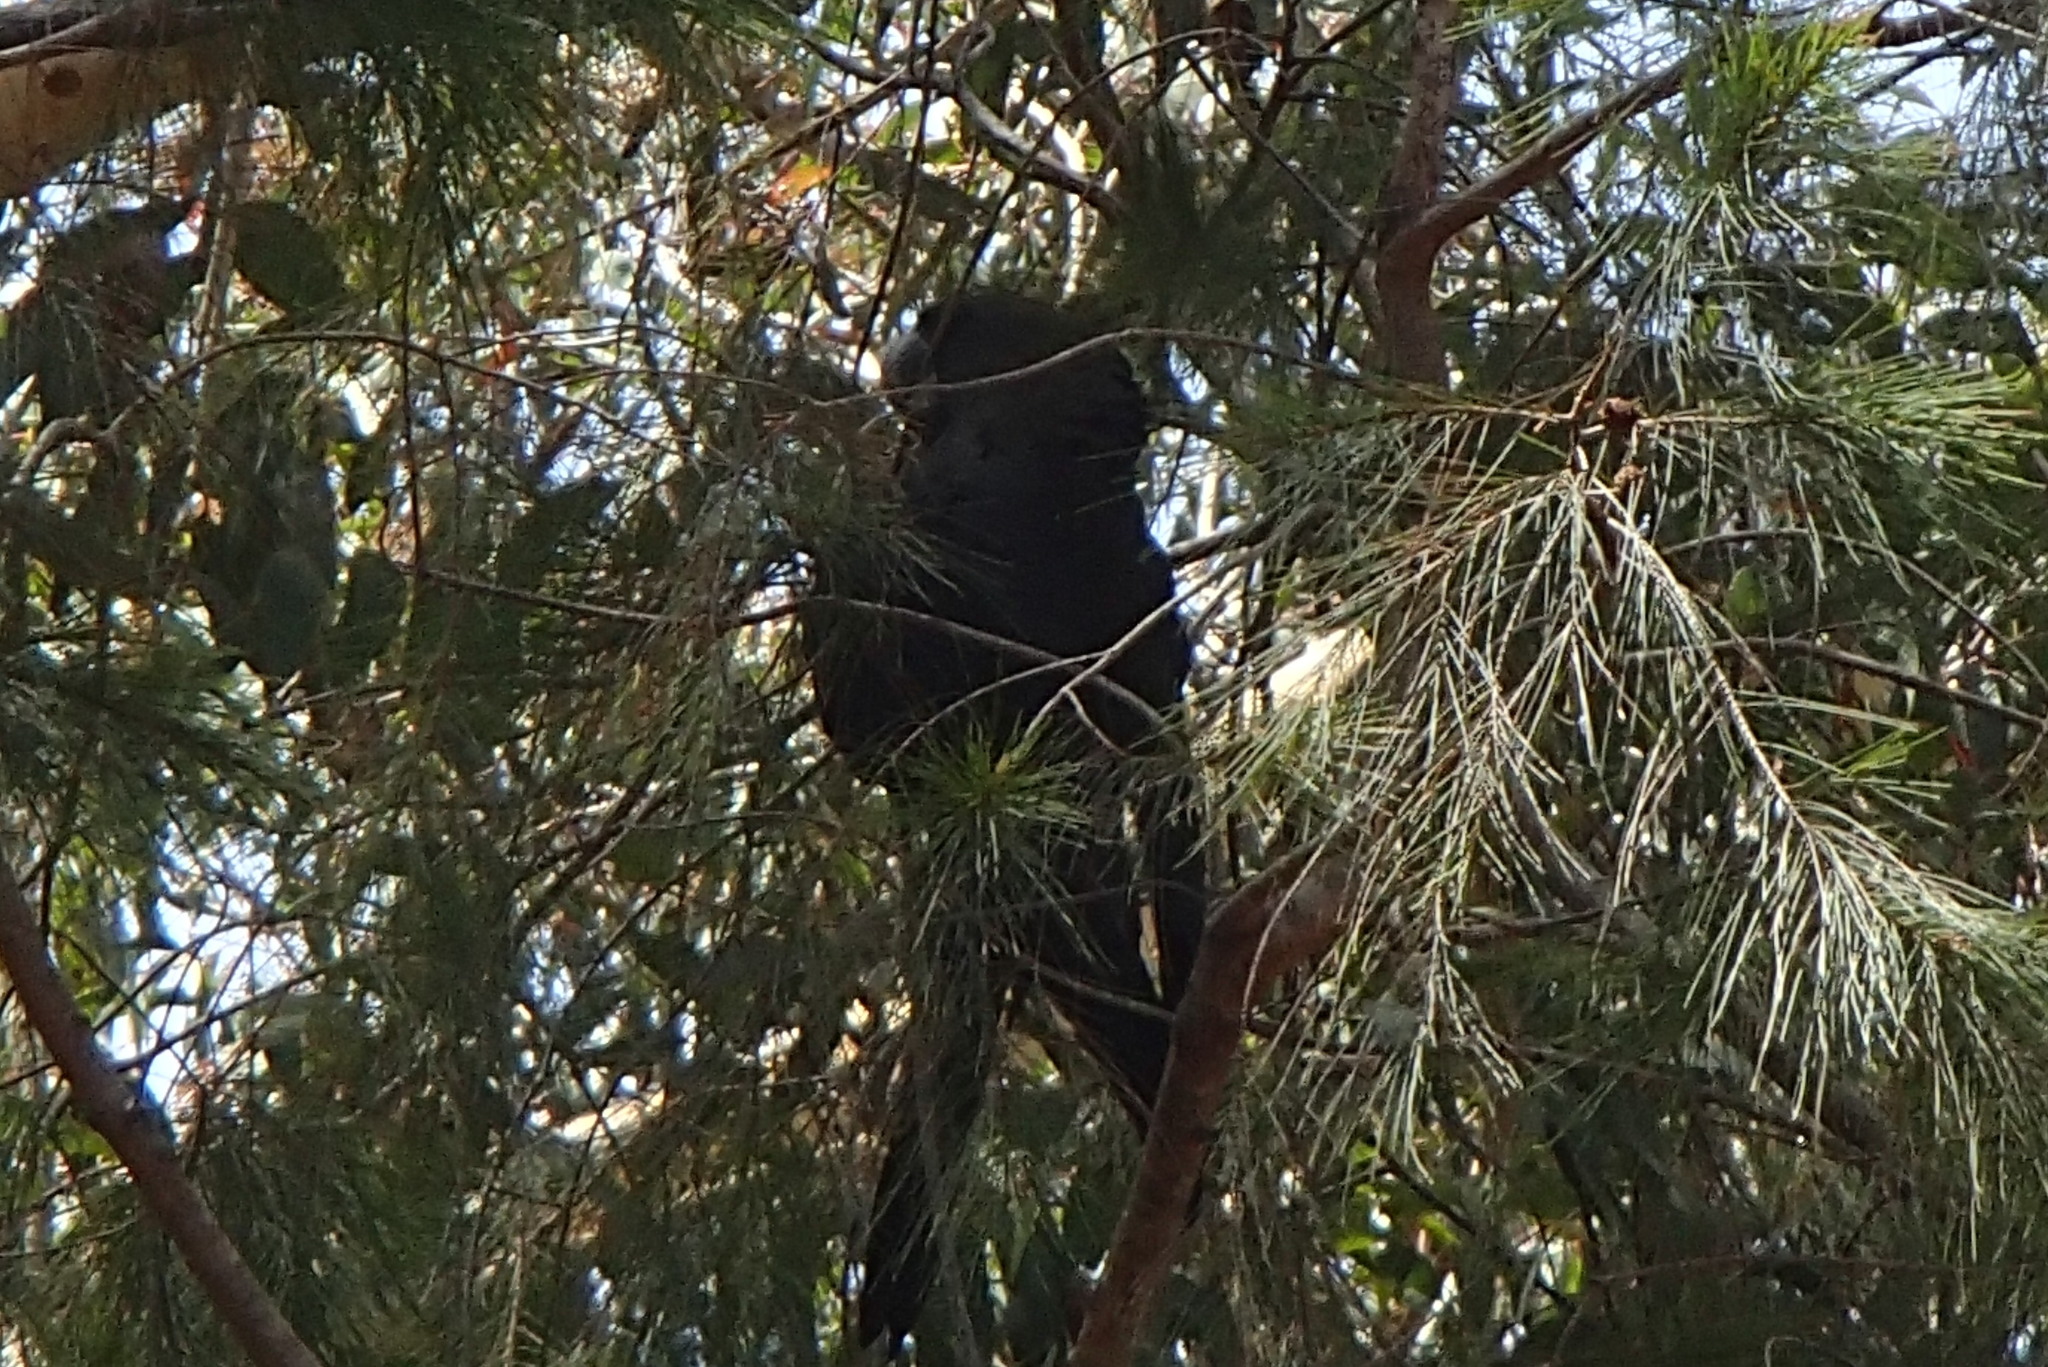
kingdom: Animalia
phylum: Chordata
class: Aves
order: Psittaciformes
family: Psittacidae
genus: Calyptorhynchus
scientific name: Calyptorhynchus lathami
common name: Glossy black cockatoo
